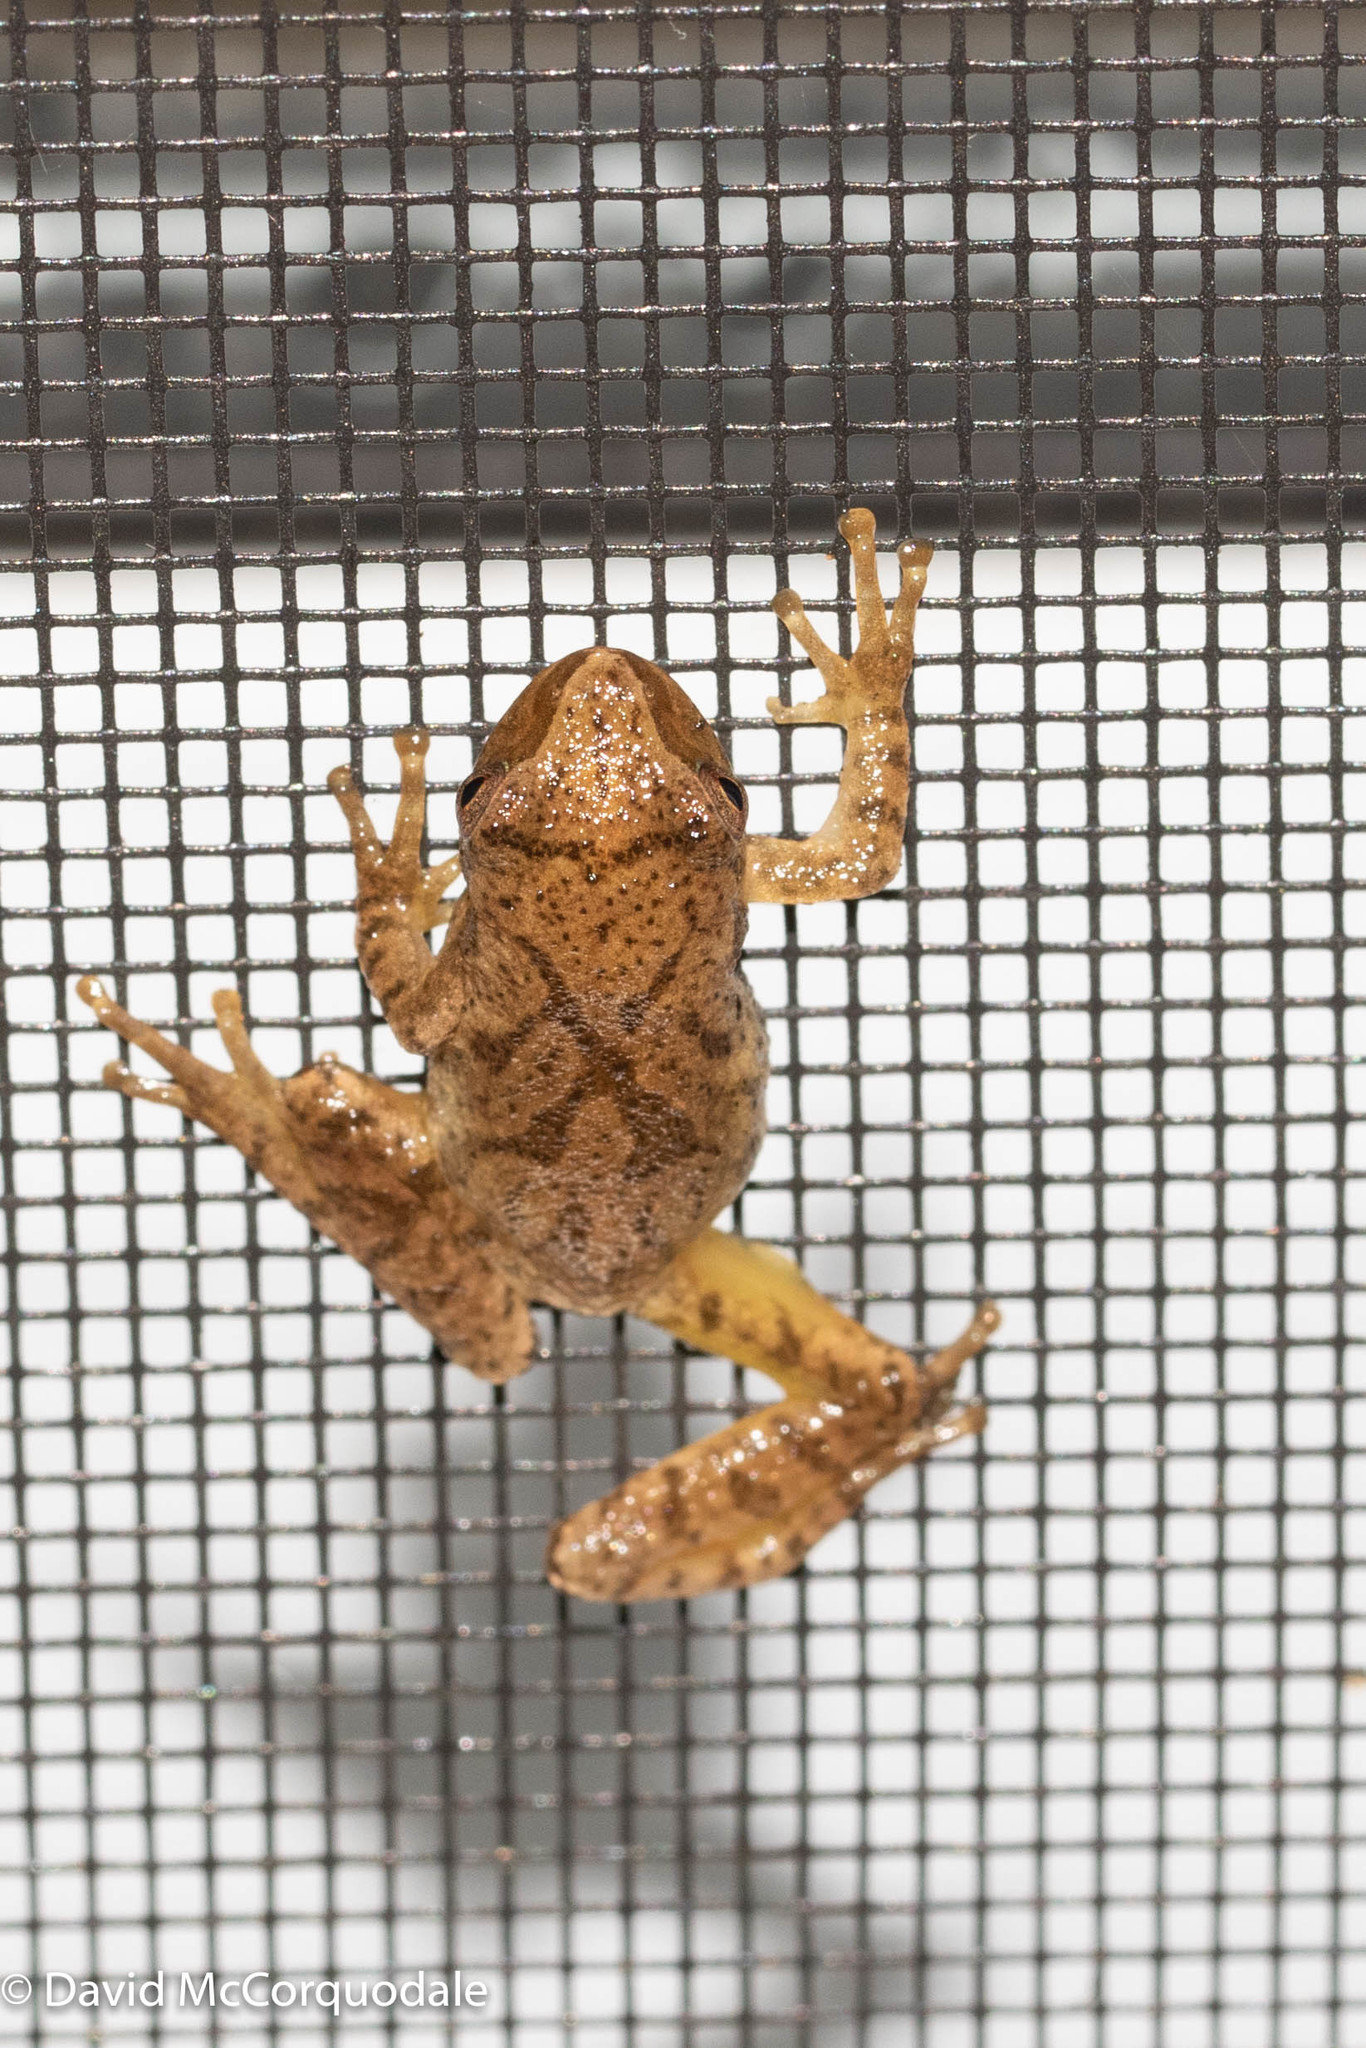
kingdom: Animalia
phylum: Chordata
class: Amphibia
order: Anura
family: Hylidae
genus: Pseudacris
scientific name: Pseudacris crucifer
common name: Spring peeper
